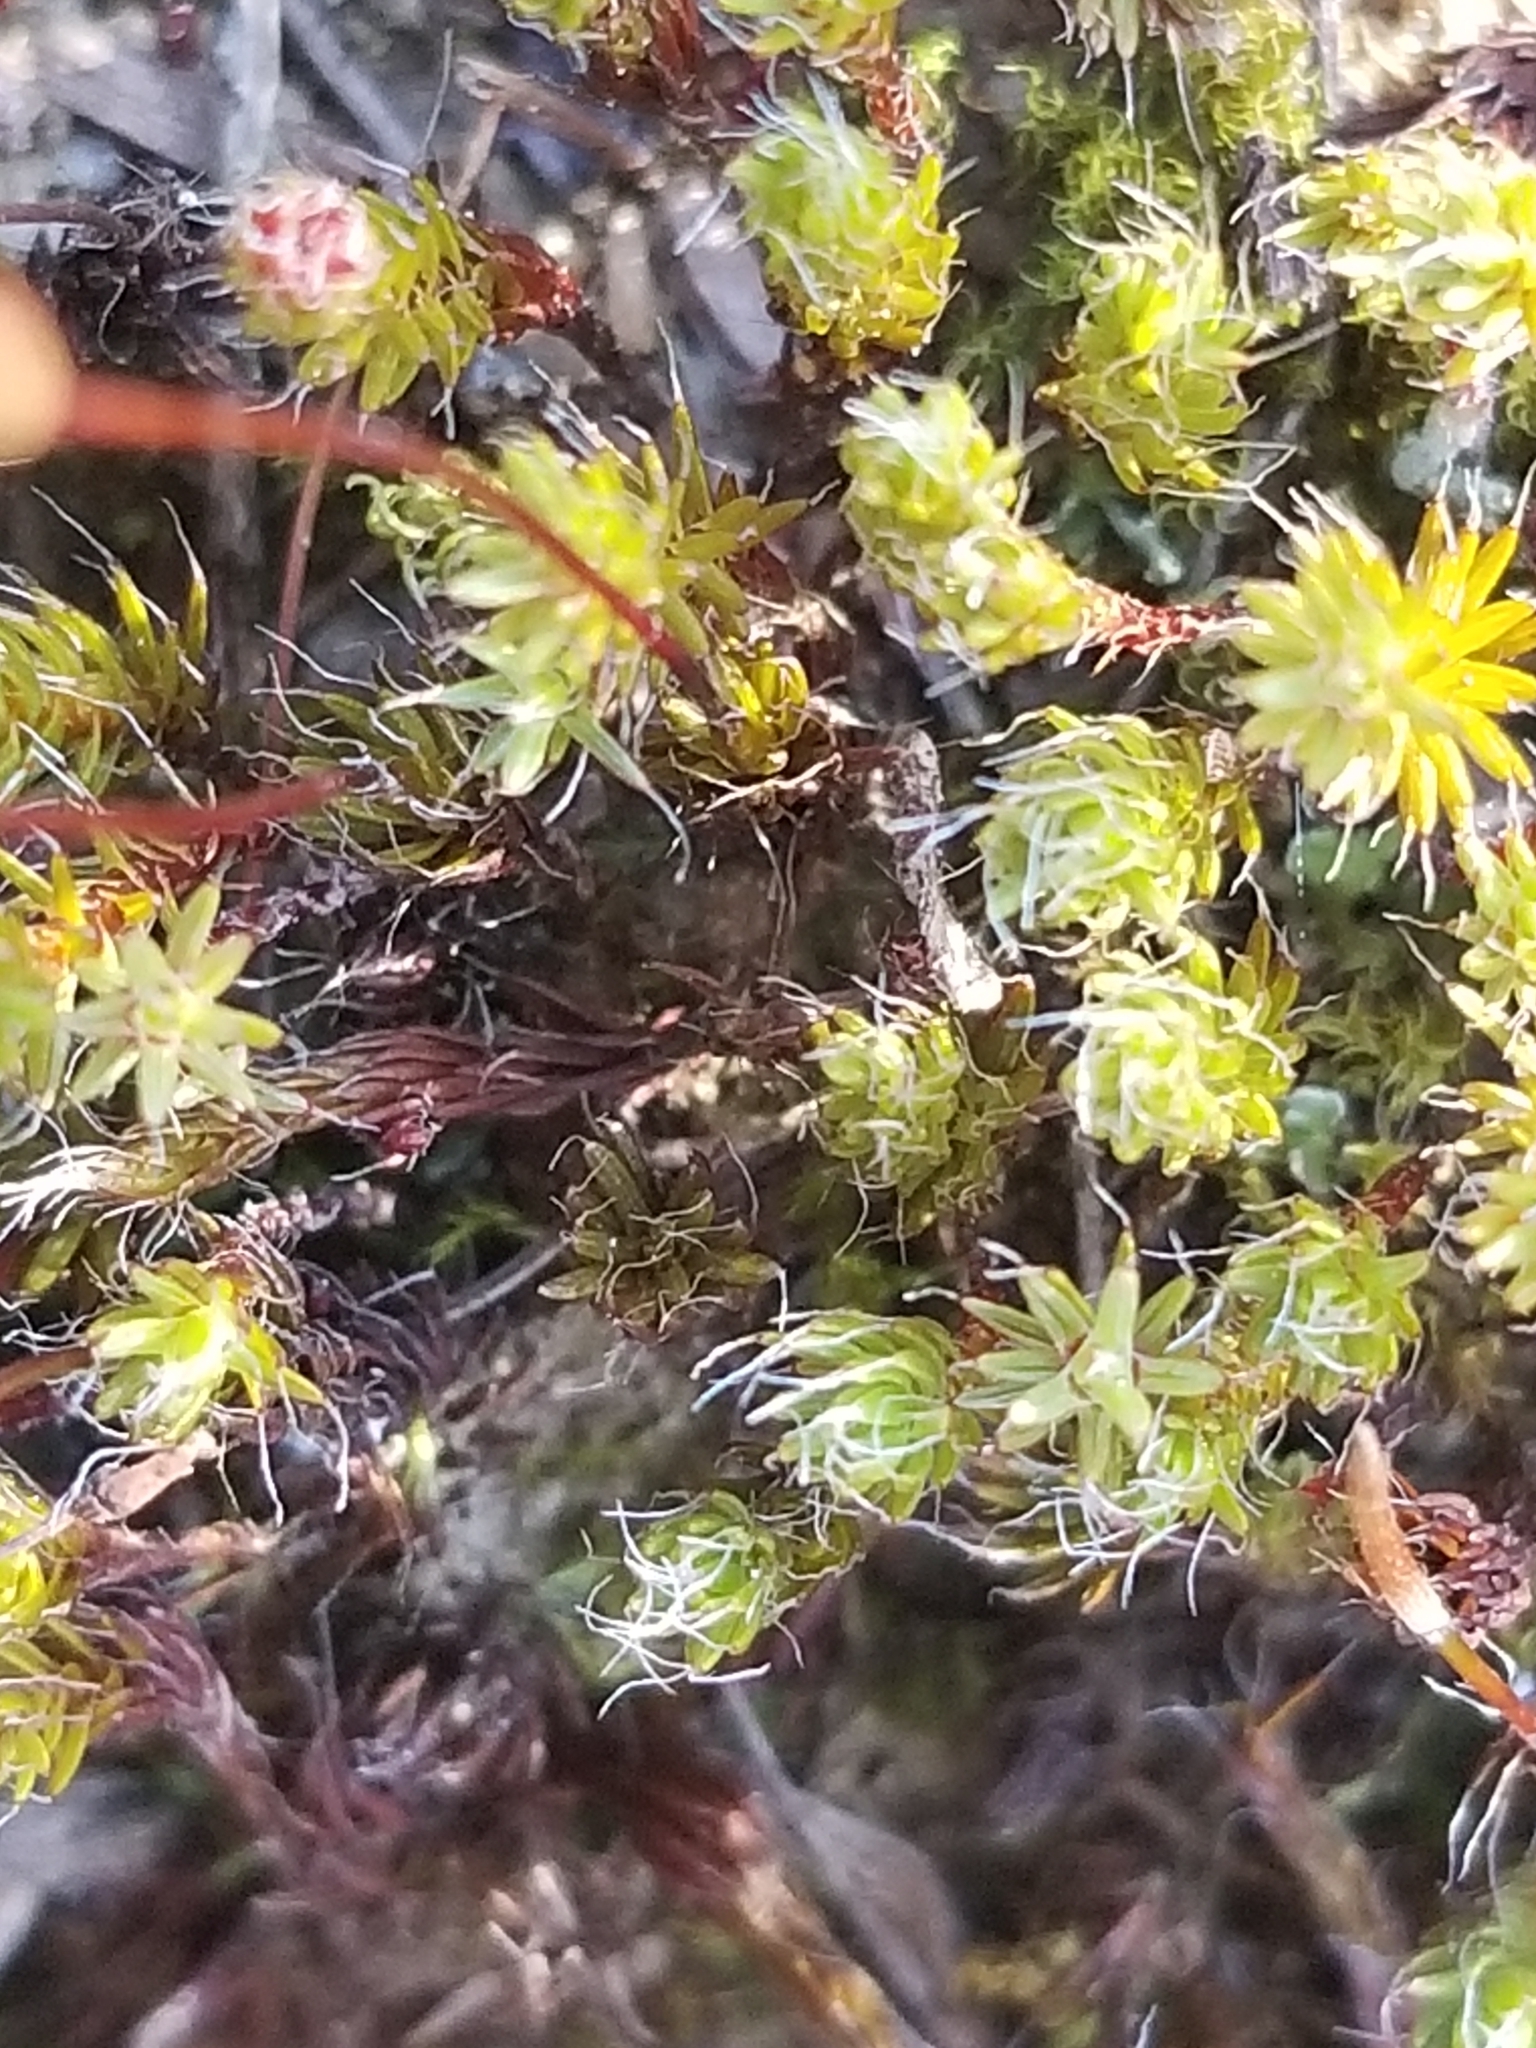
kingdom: Plantae
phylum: Bryophyta
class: Polytrichopsida
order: Polytrichales
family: Polytrichaceae
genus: Polytrichum
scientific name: Polytrichum piliferum
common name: Bristly haircap
